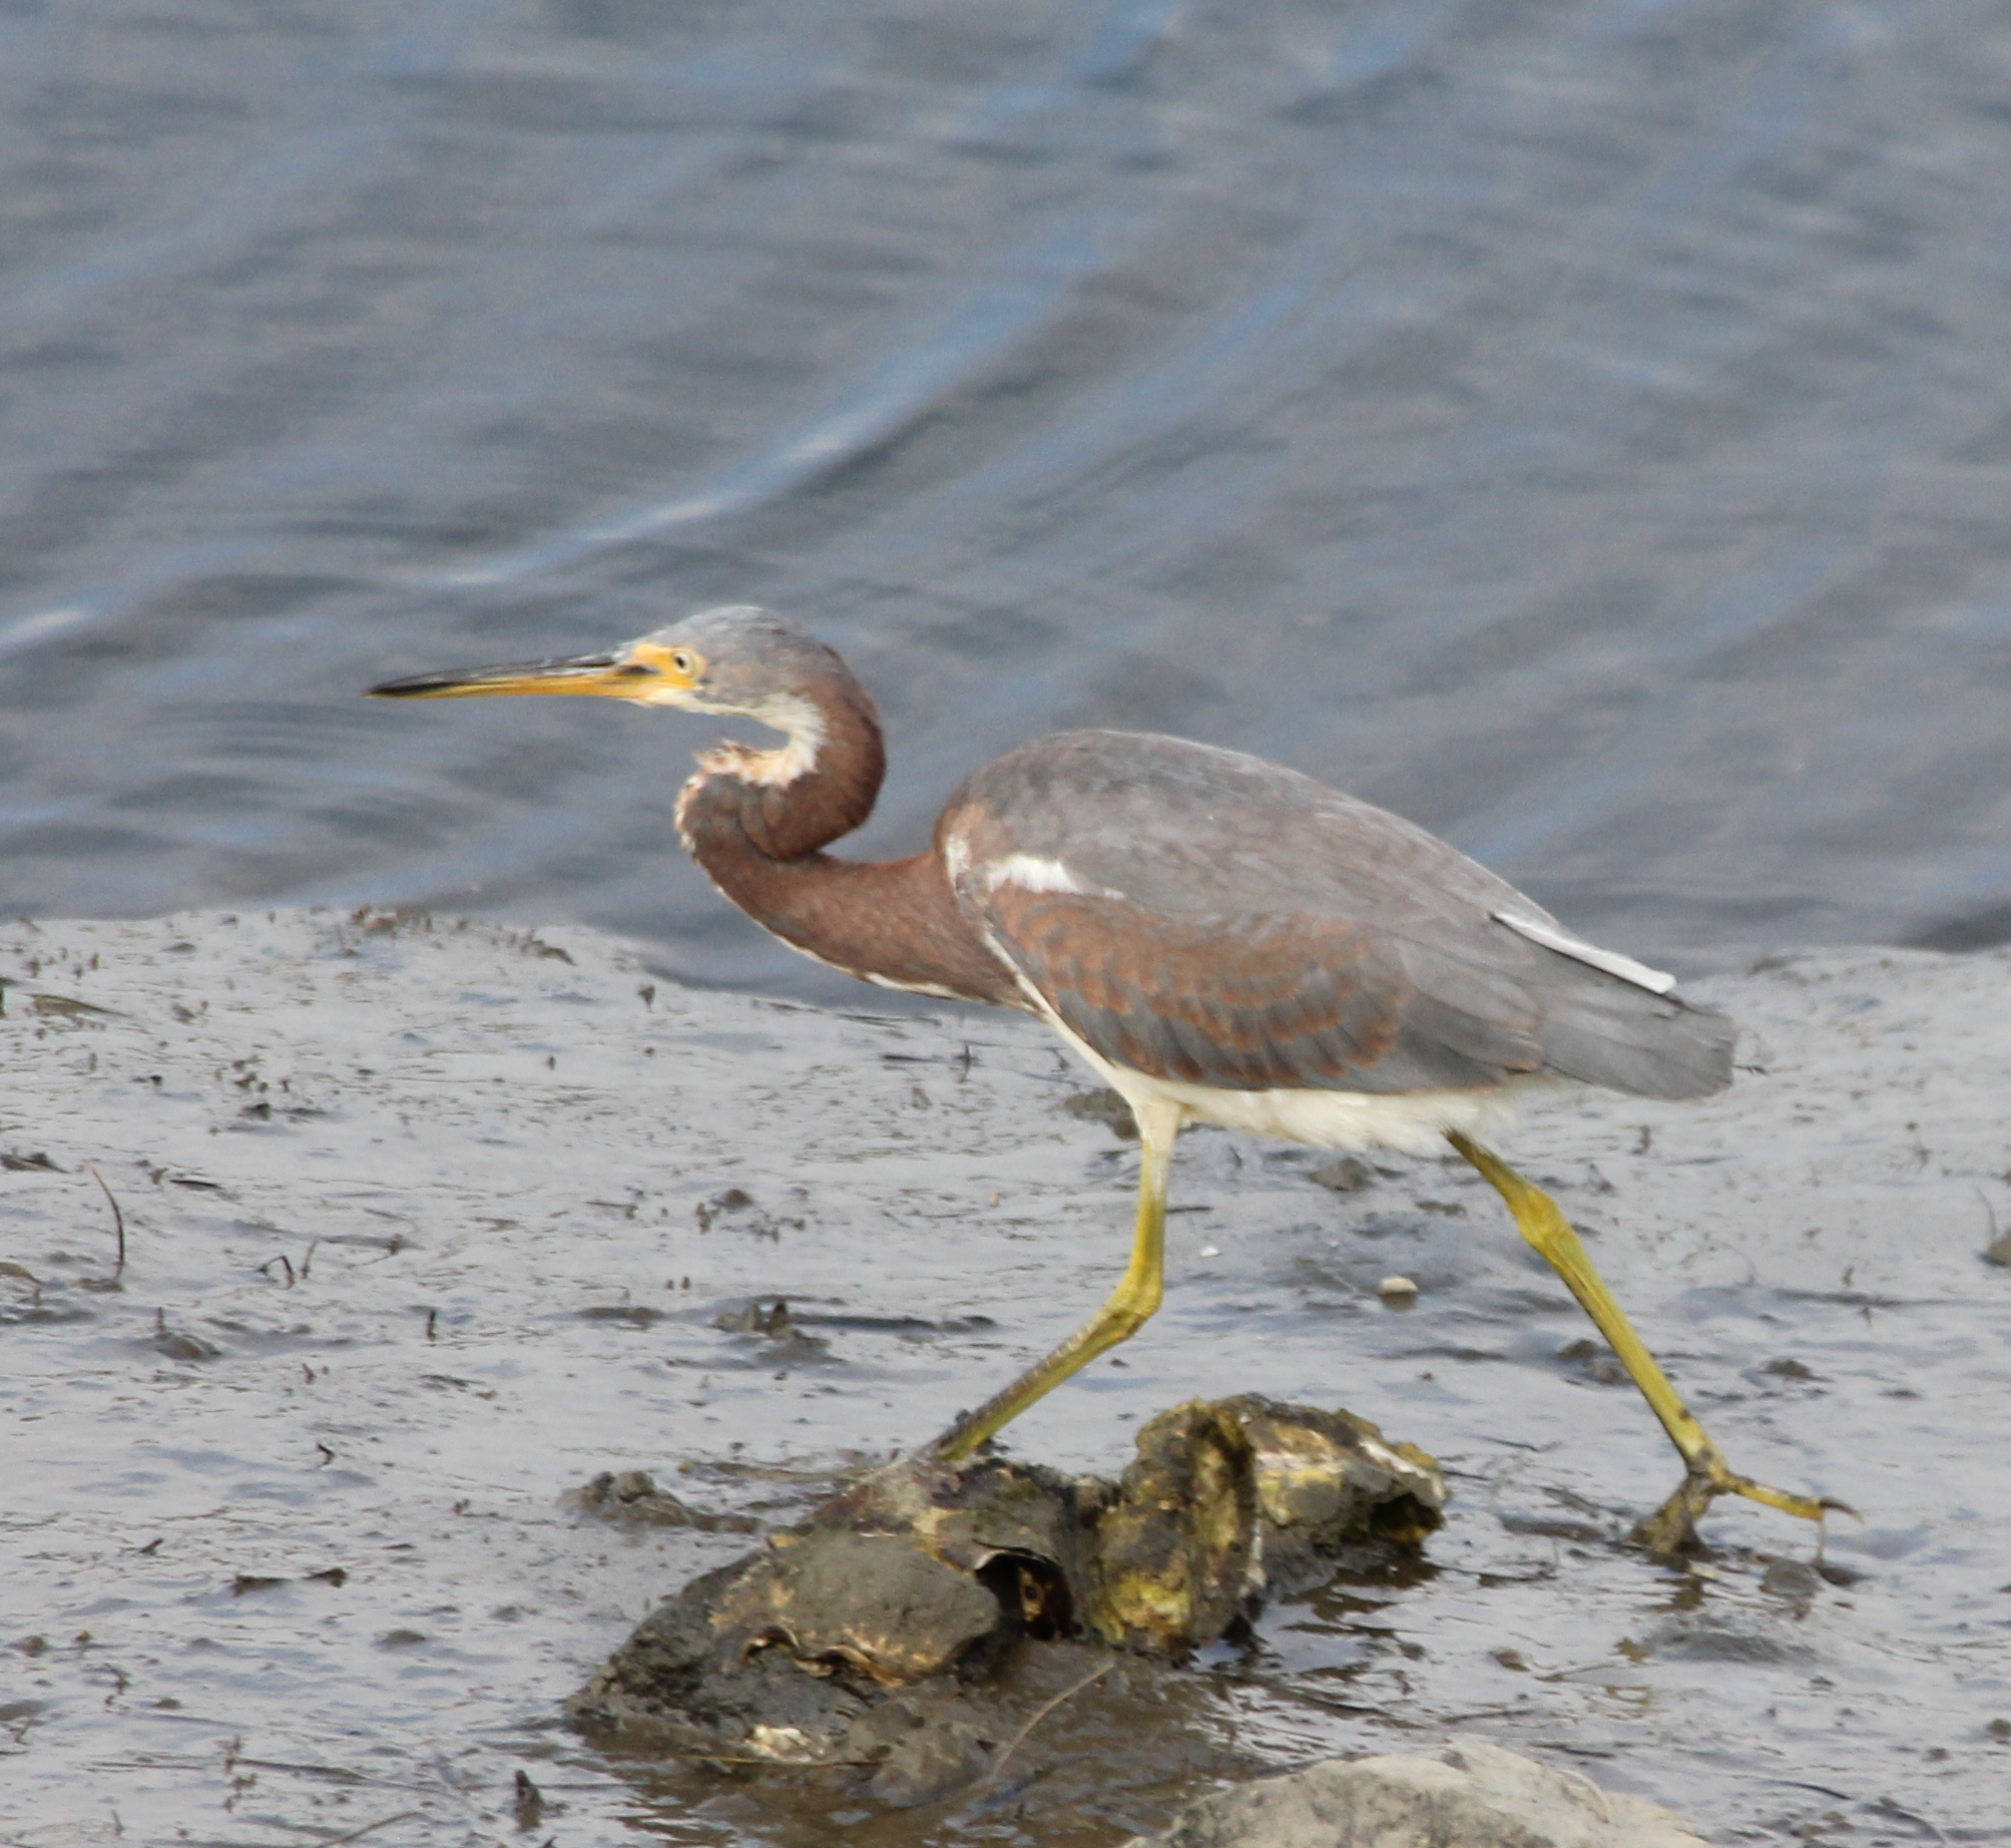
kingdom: Animalia
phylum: Chordata
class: Aves
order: Pelecaniformes
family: Ardeidae
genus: Egretta
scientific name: Egretta tricolor
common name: Tricolored heron
